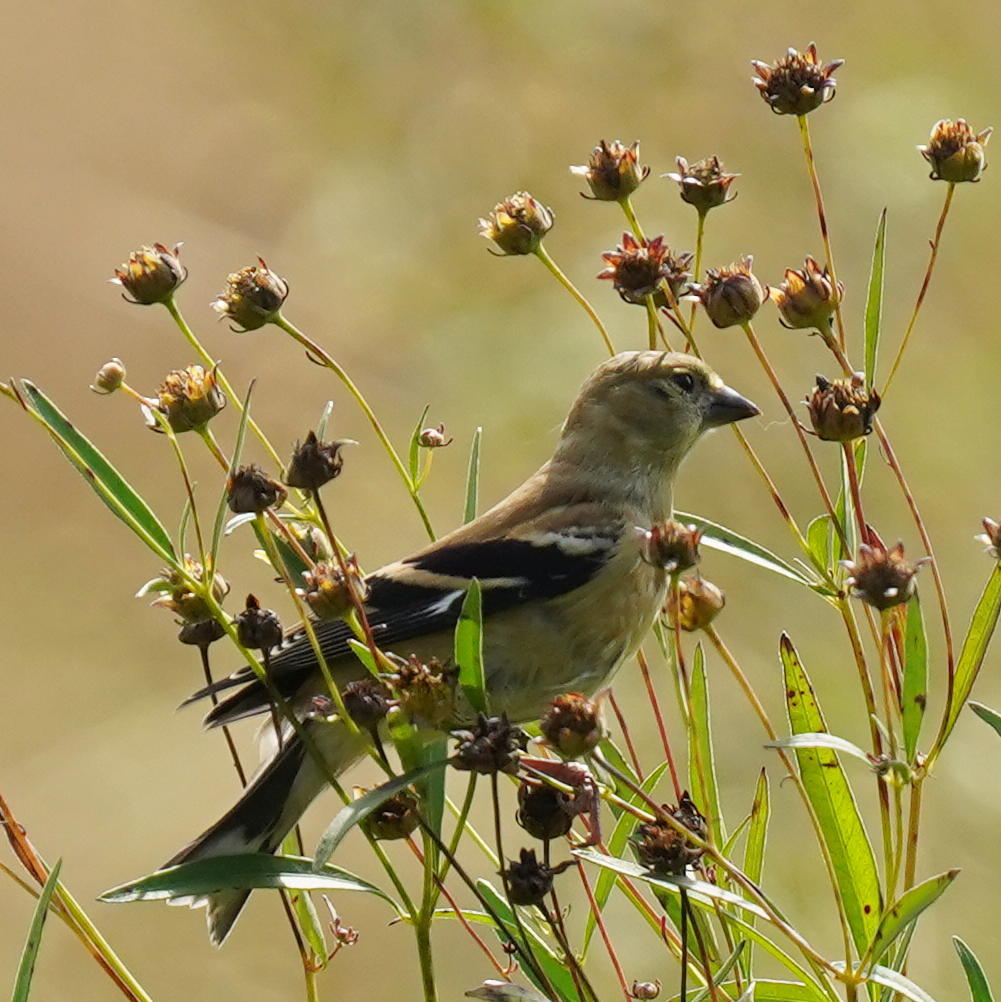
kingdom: Animalia
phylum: Chordata
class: Aves
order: Passeriformes
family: Fringillidae
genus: Spinus
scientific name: Spinus tristis
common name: American goldfinch
